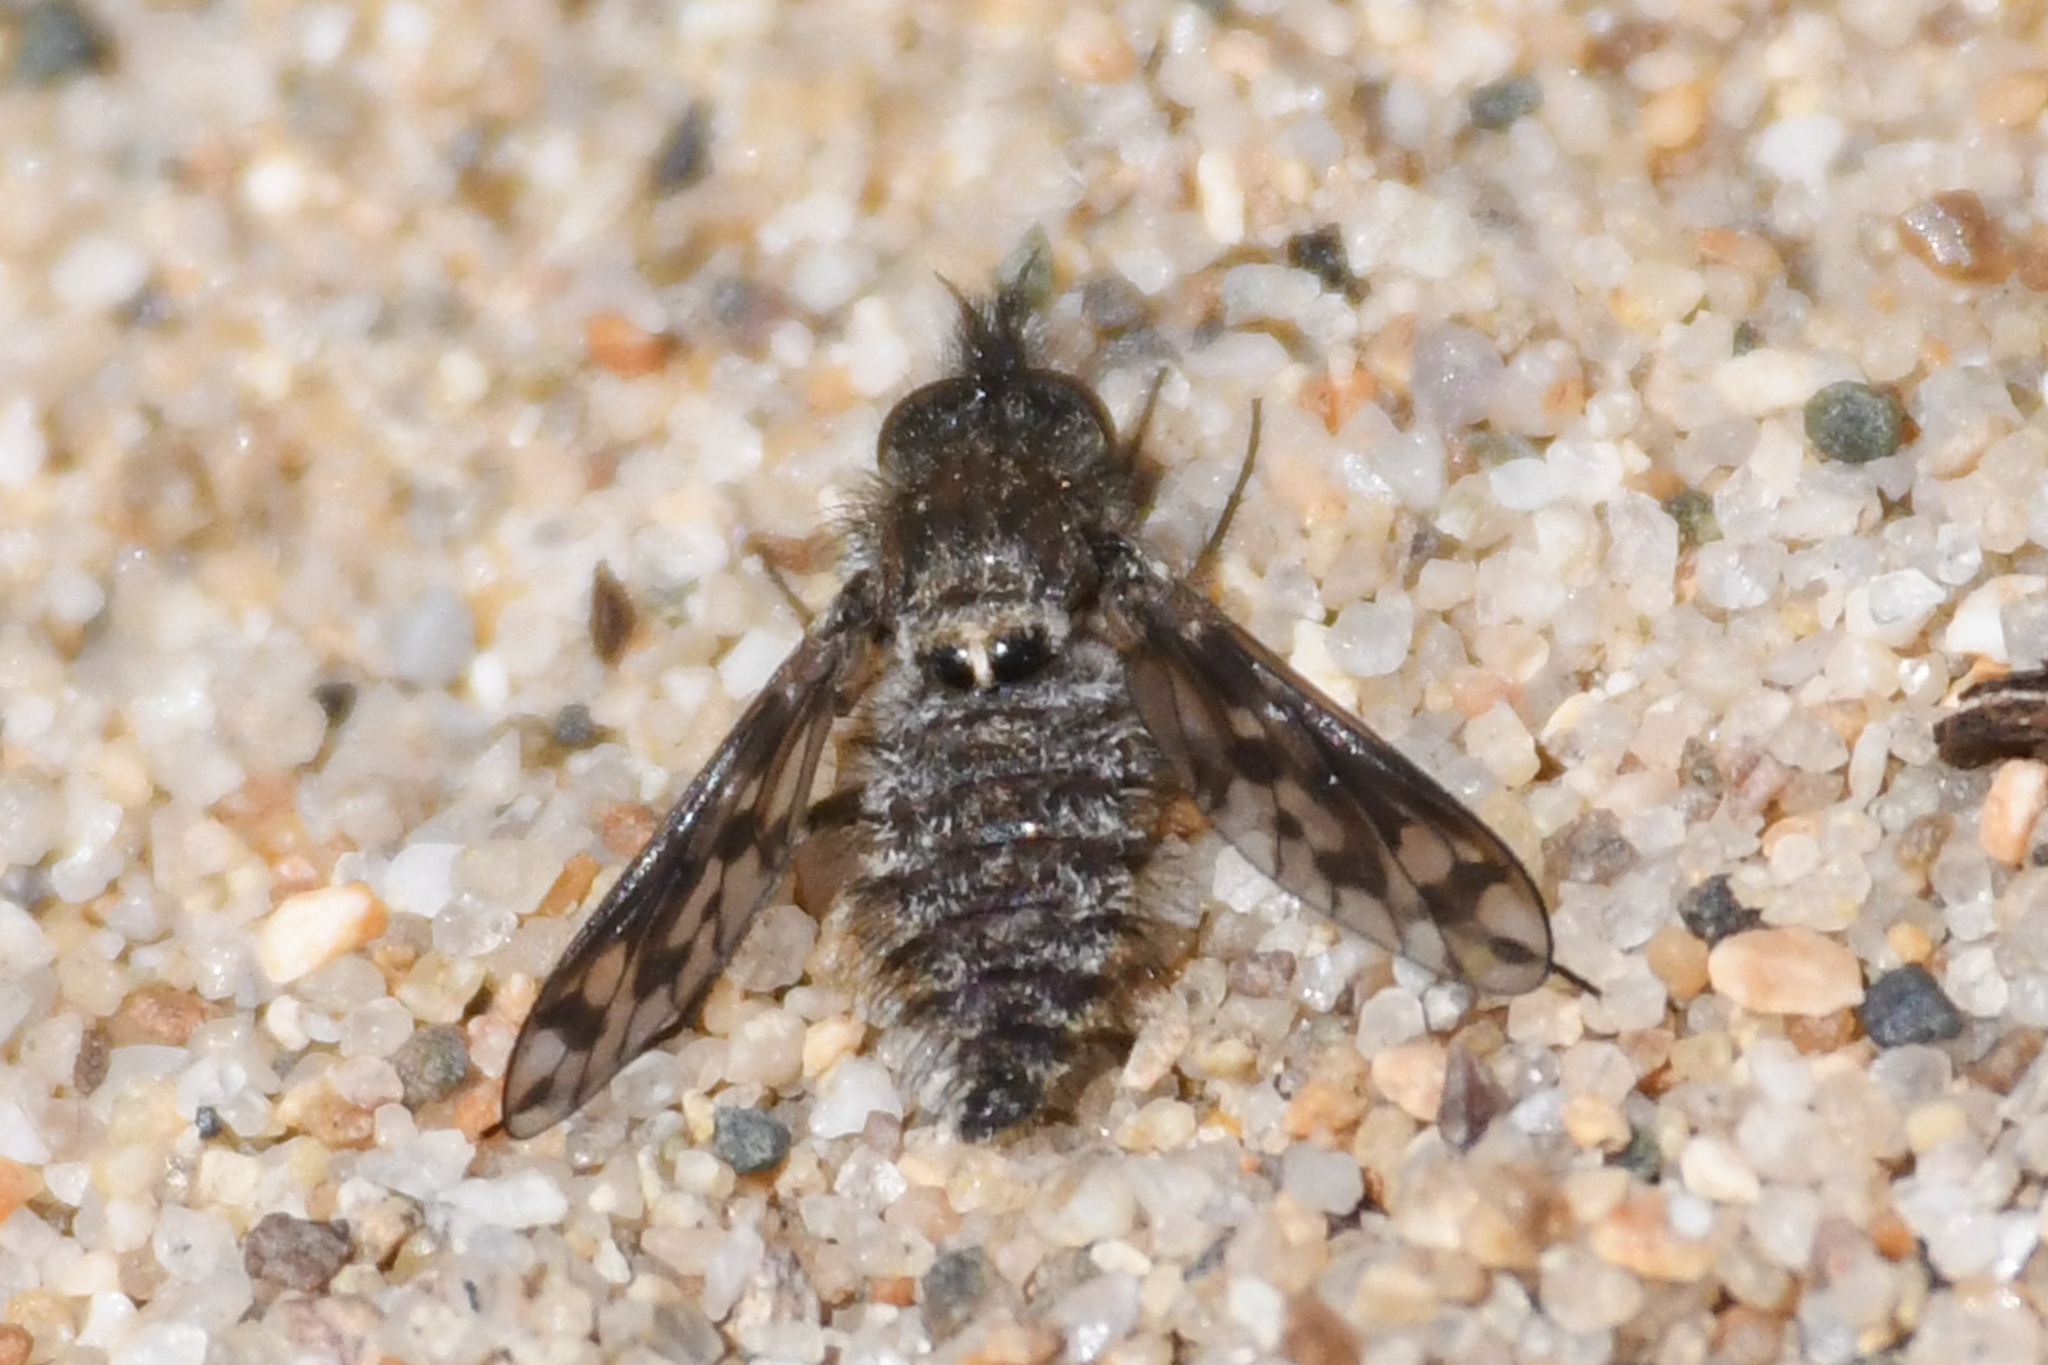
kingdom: Animalia
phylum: Arthropoda
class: Insecta
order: Diptera
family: Bombyliidae
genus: Conophorus
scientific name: Conophorus collini
